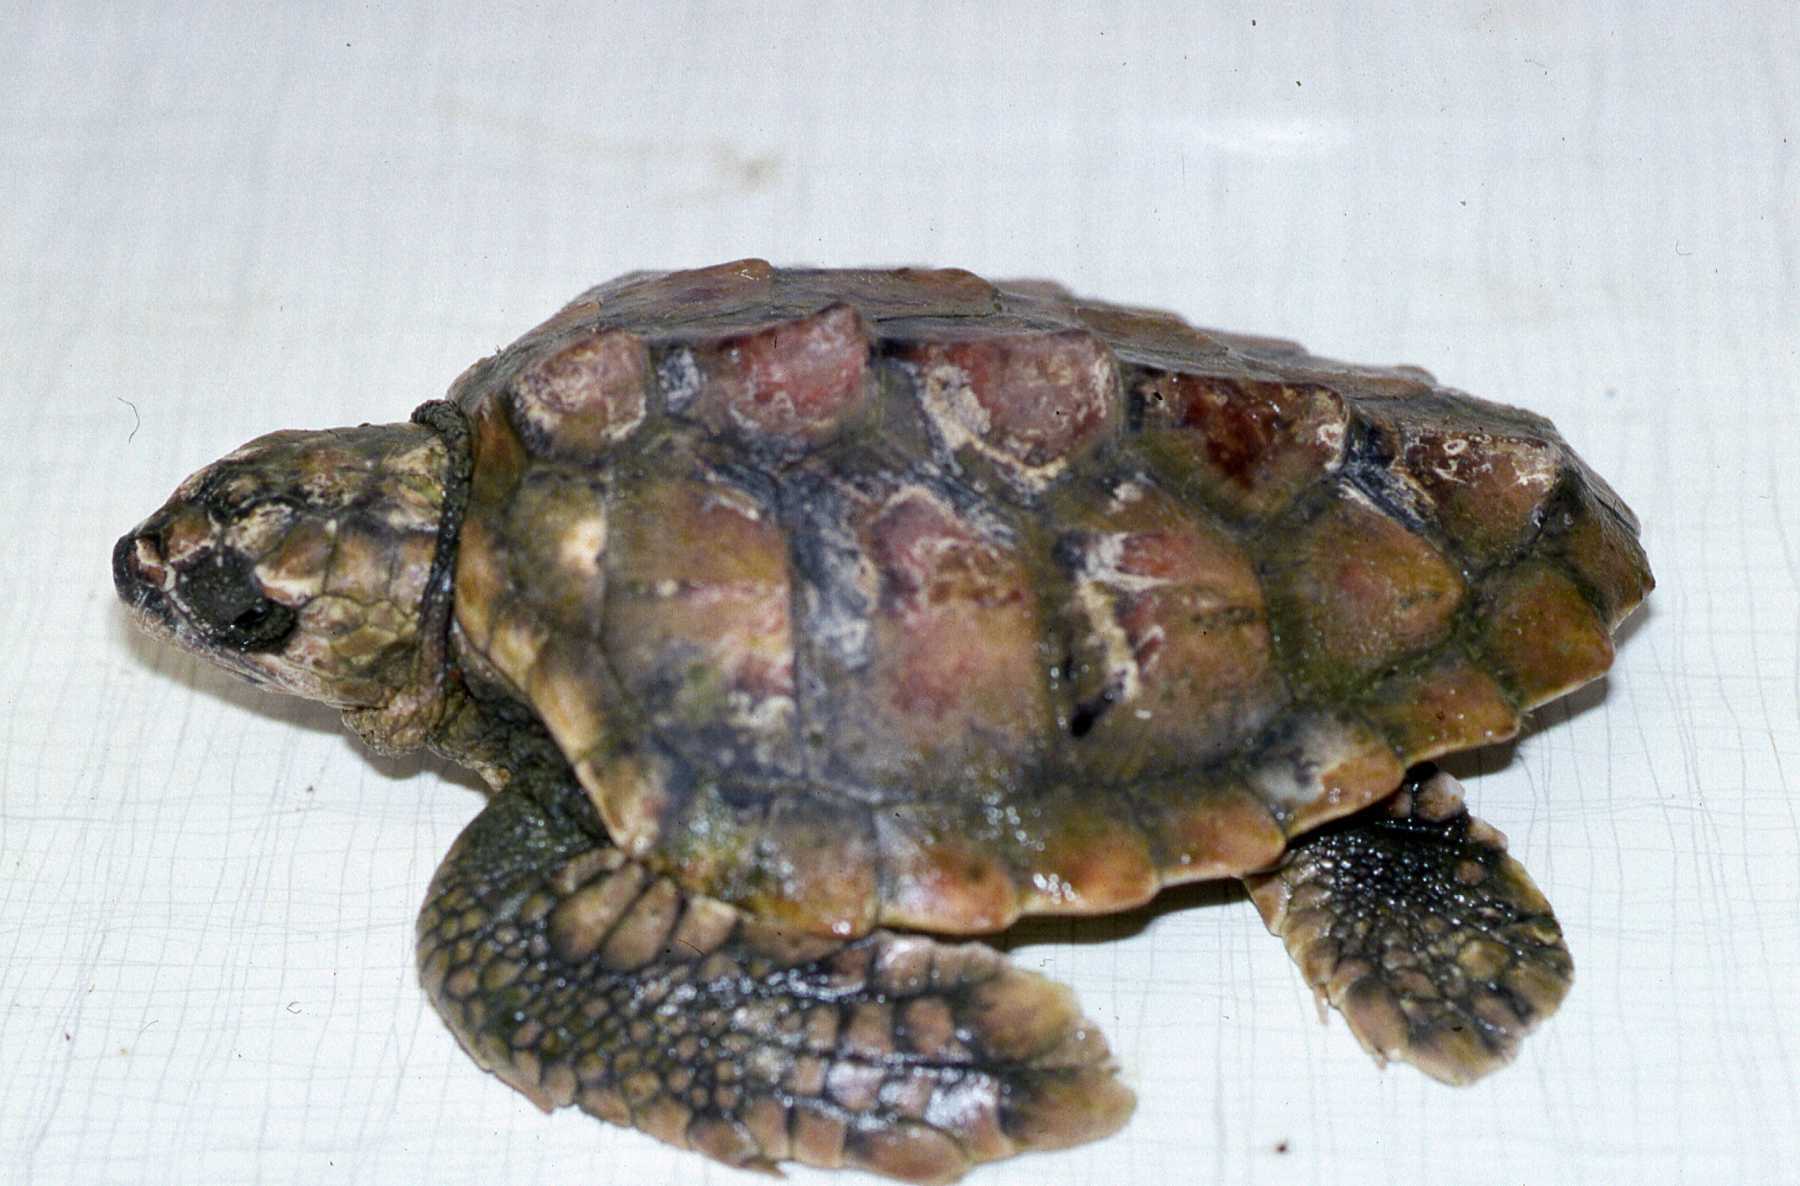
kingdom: Animalia
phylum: Chordata
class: Testudines
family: Cheloniidae
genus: Caretta
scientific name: Caretta caretta
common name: Loggerhead sea turtle
